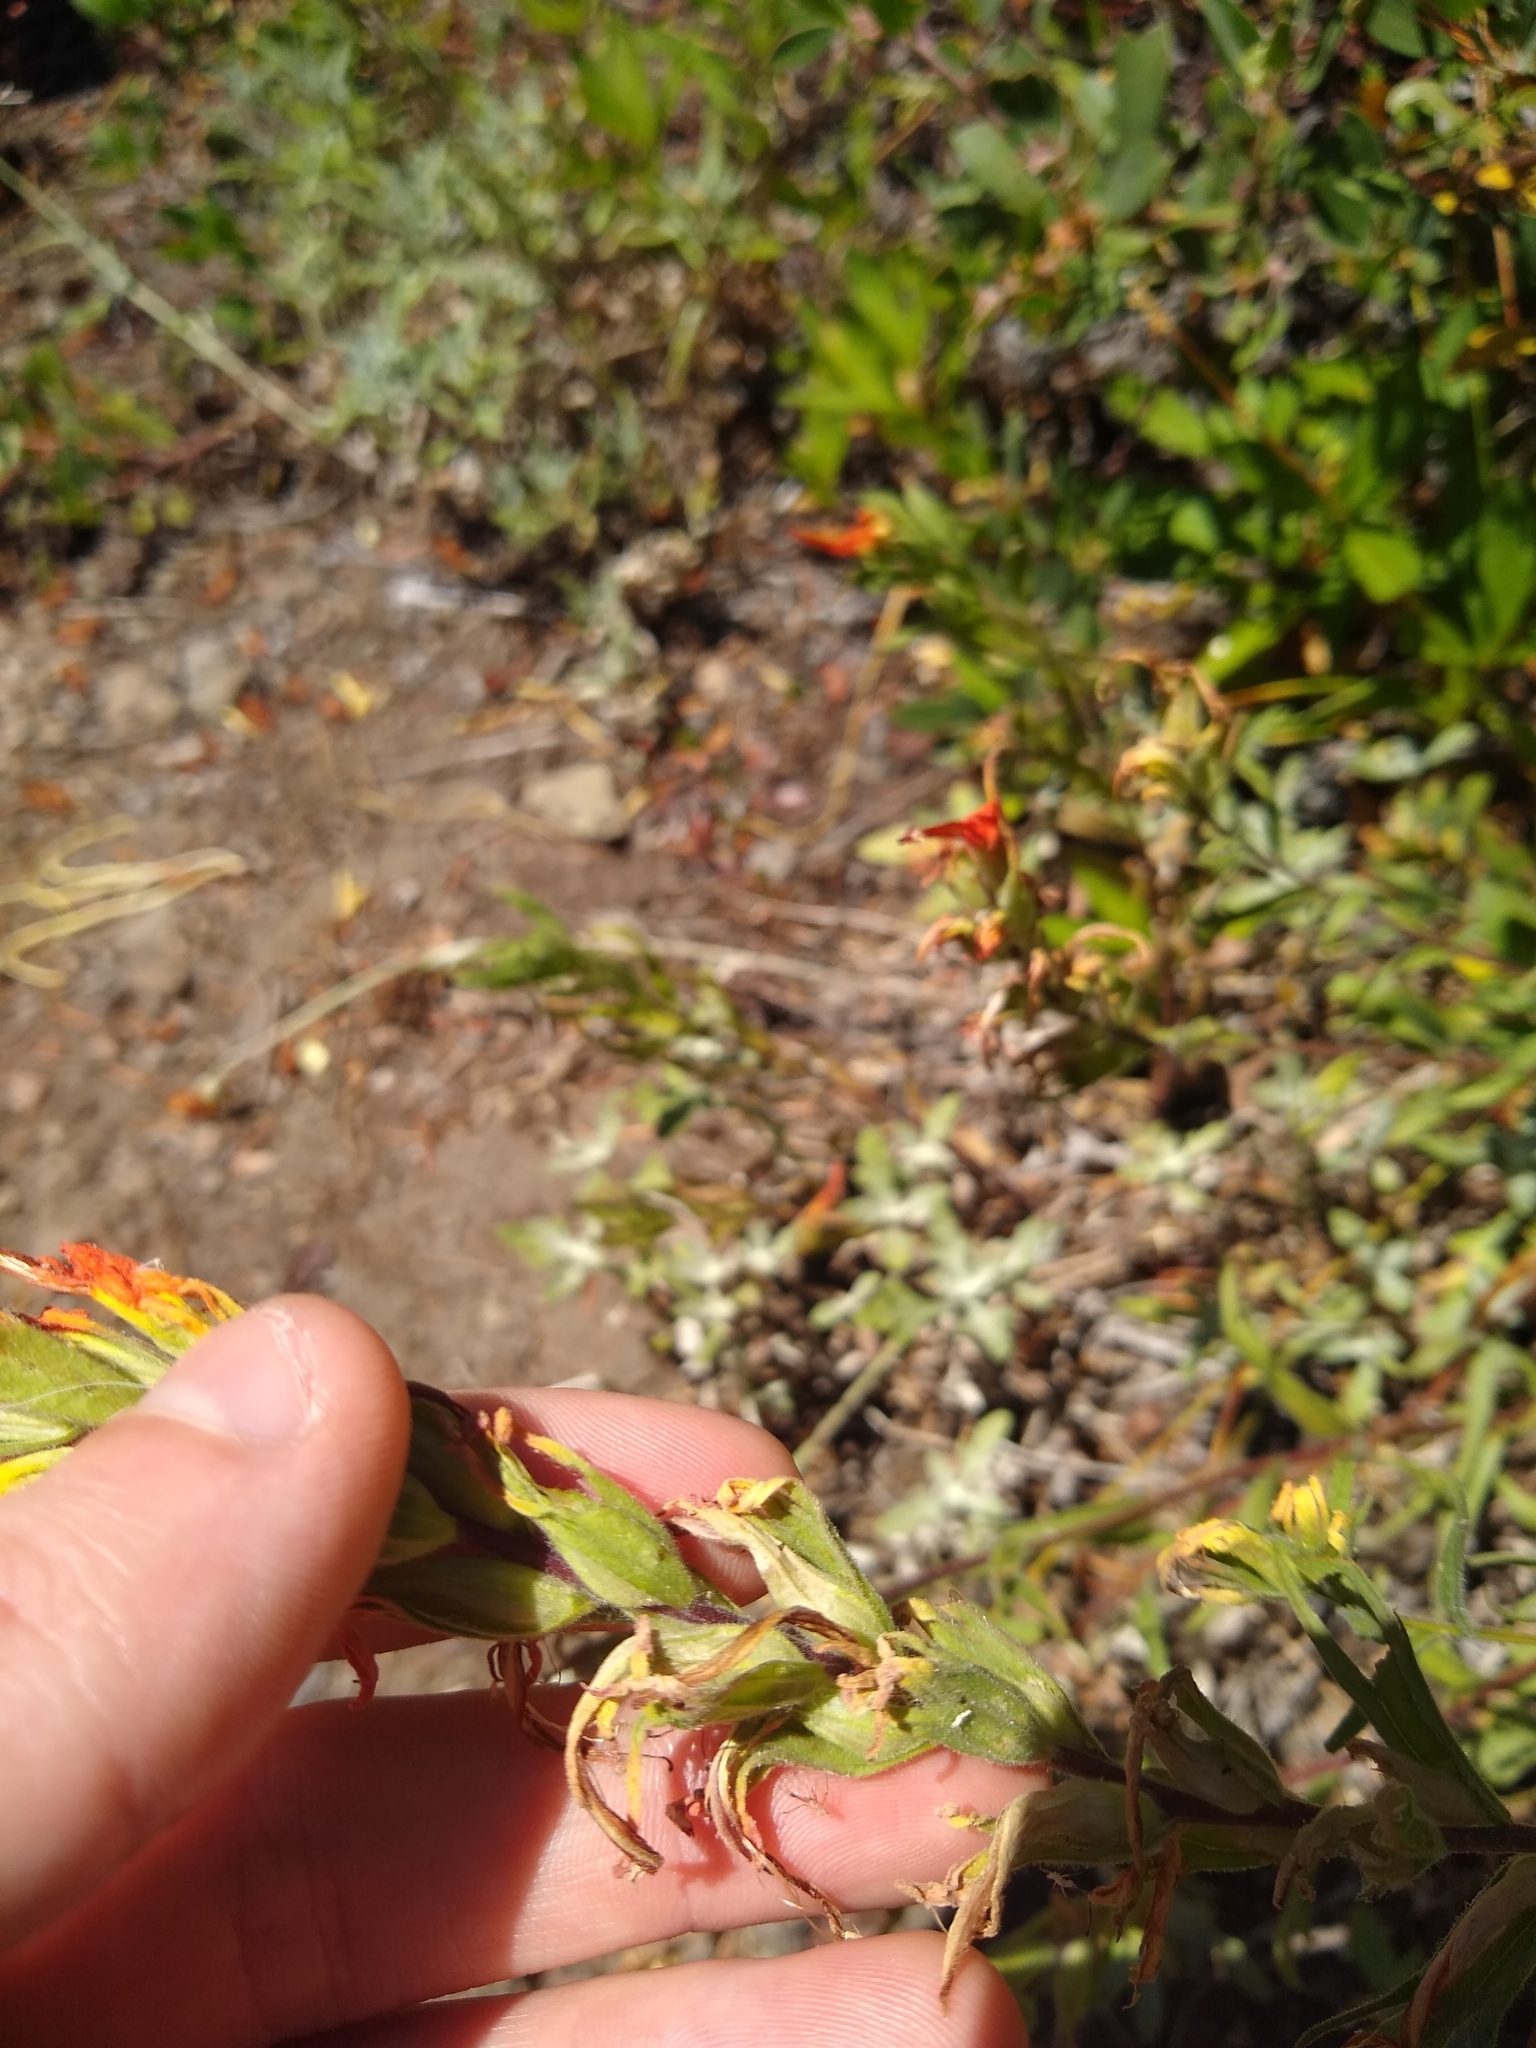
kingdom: Plantae
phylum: Tracheophyta
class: Magnoliopsida
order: Lamiales
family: Orobanchaceae
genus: Castilleja
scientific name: Castilleja
